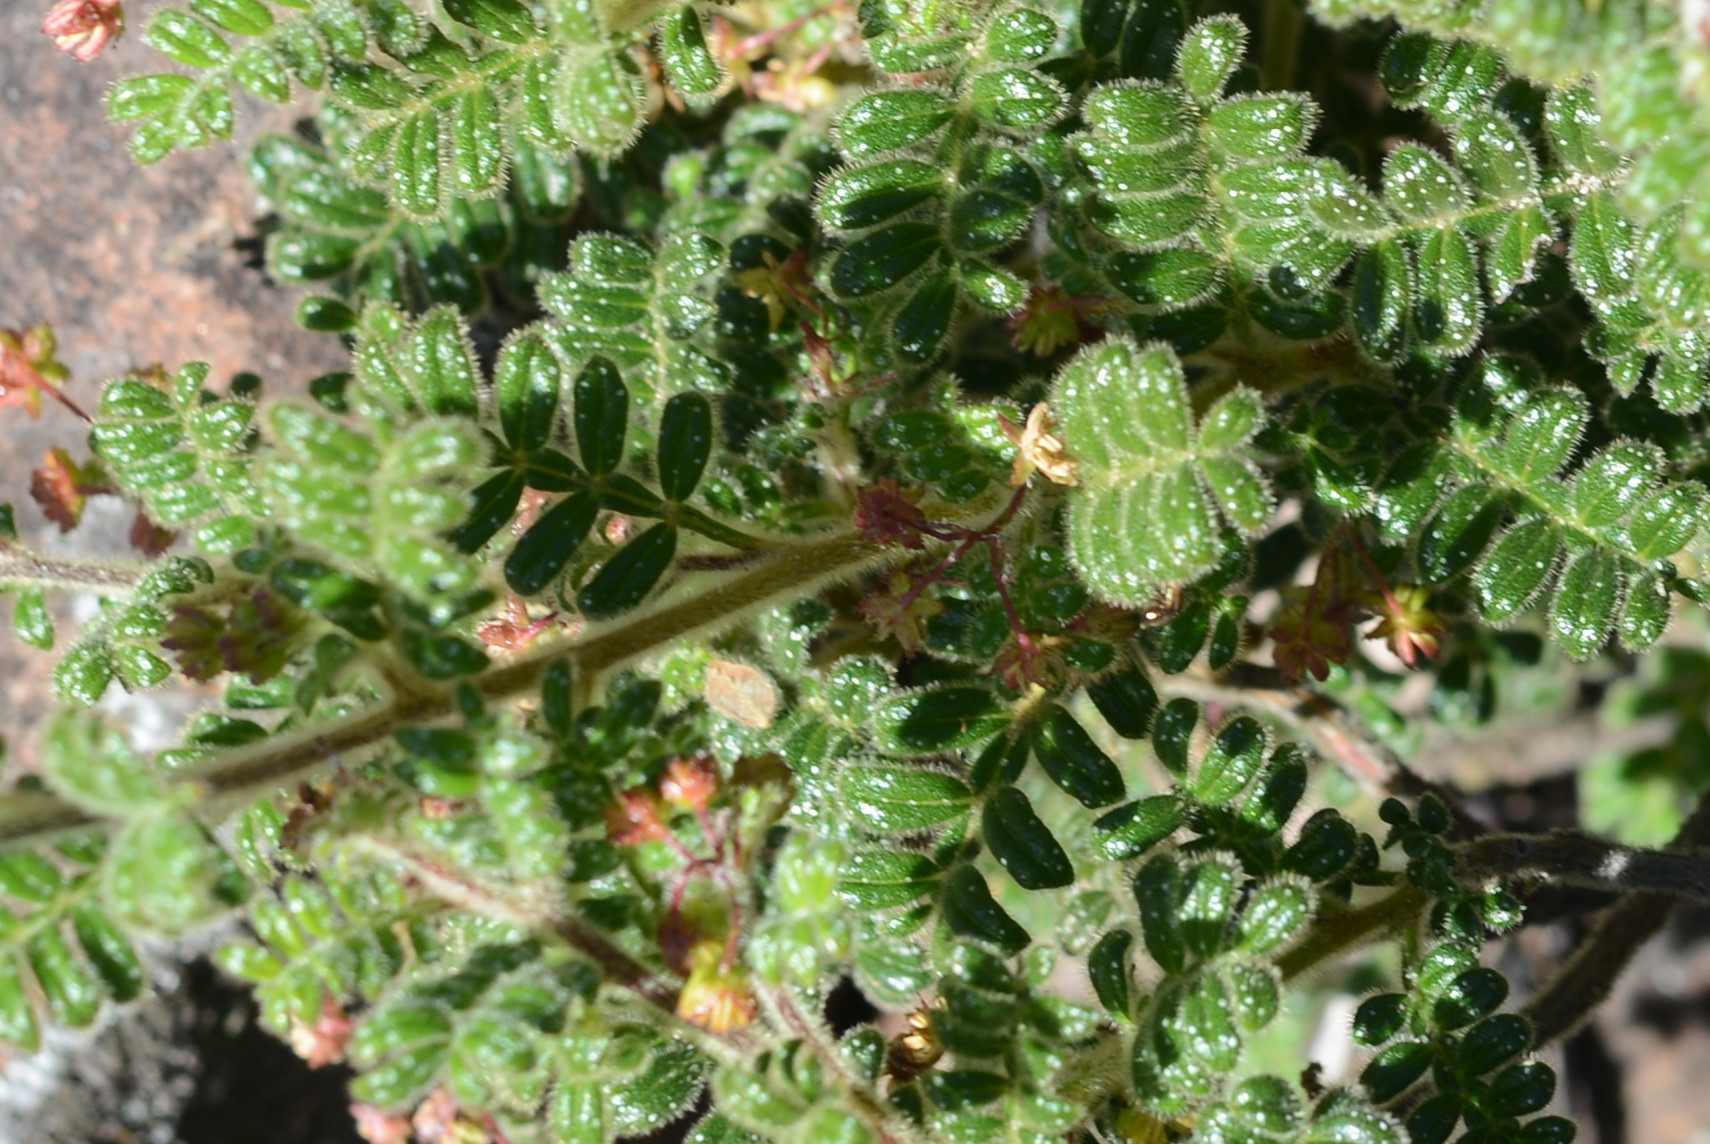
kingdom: Plantae
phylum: Tracheophyta
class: Magnoliopsida
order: Sapindales
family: Sapindaceae
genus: Dodonaea
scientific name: Dodonaea pinnata
